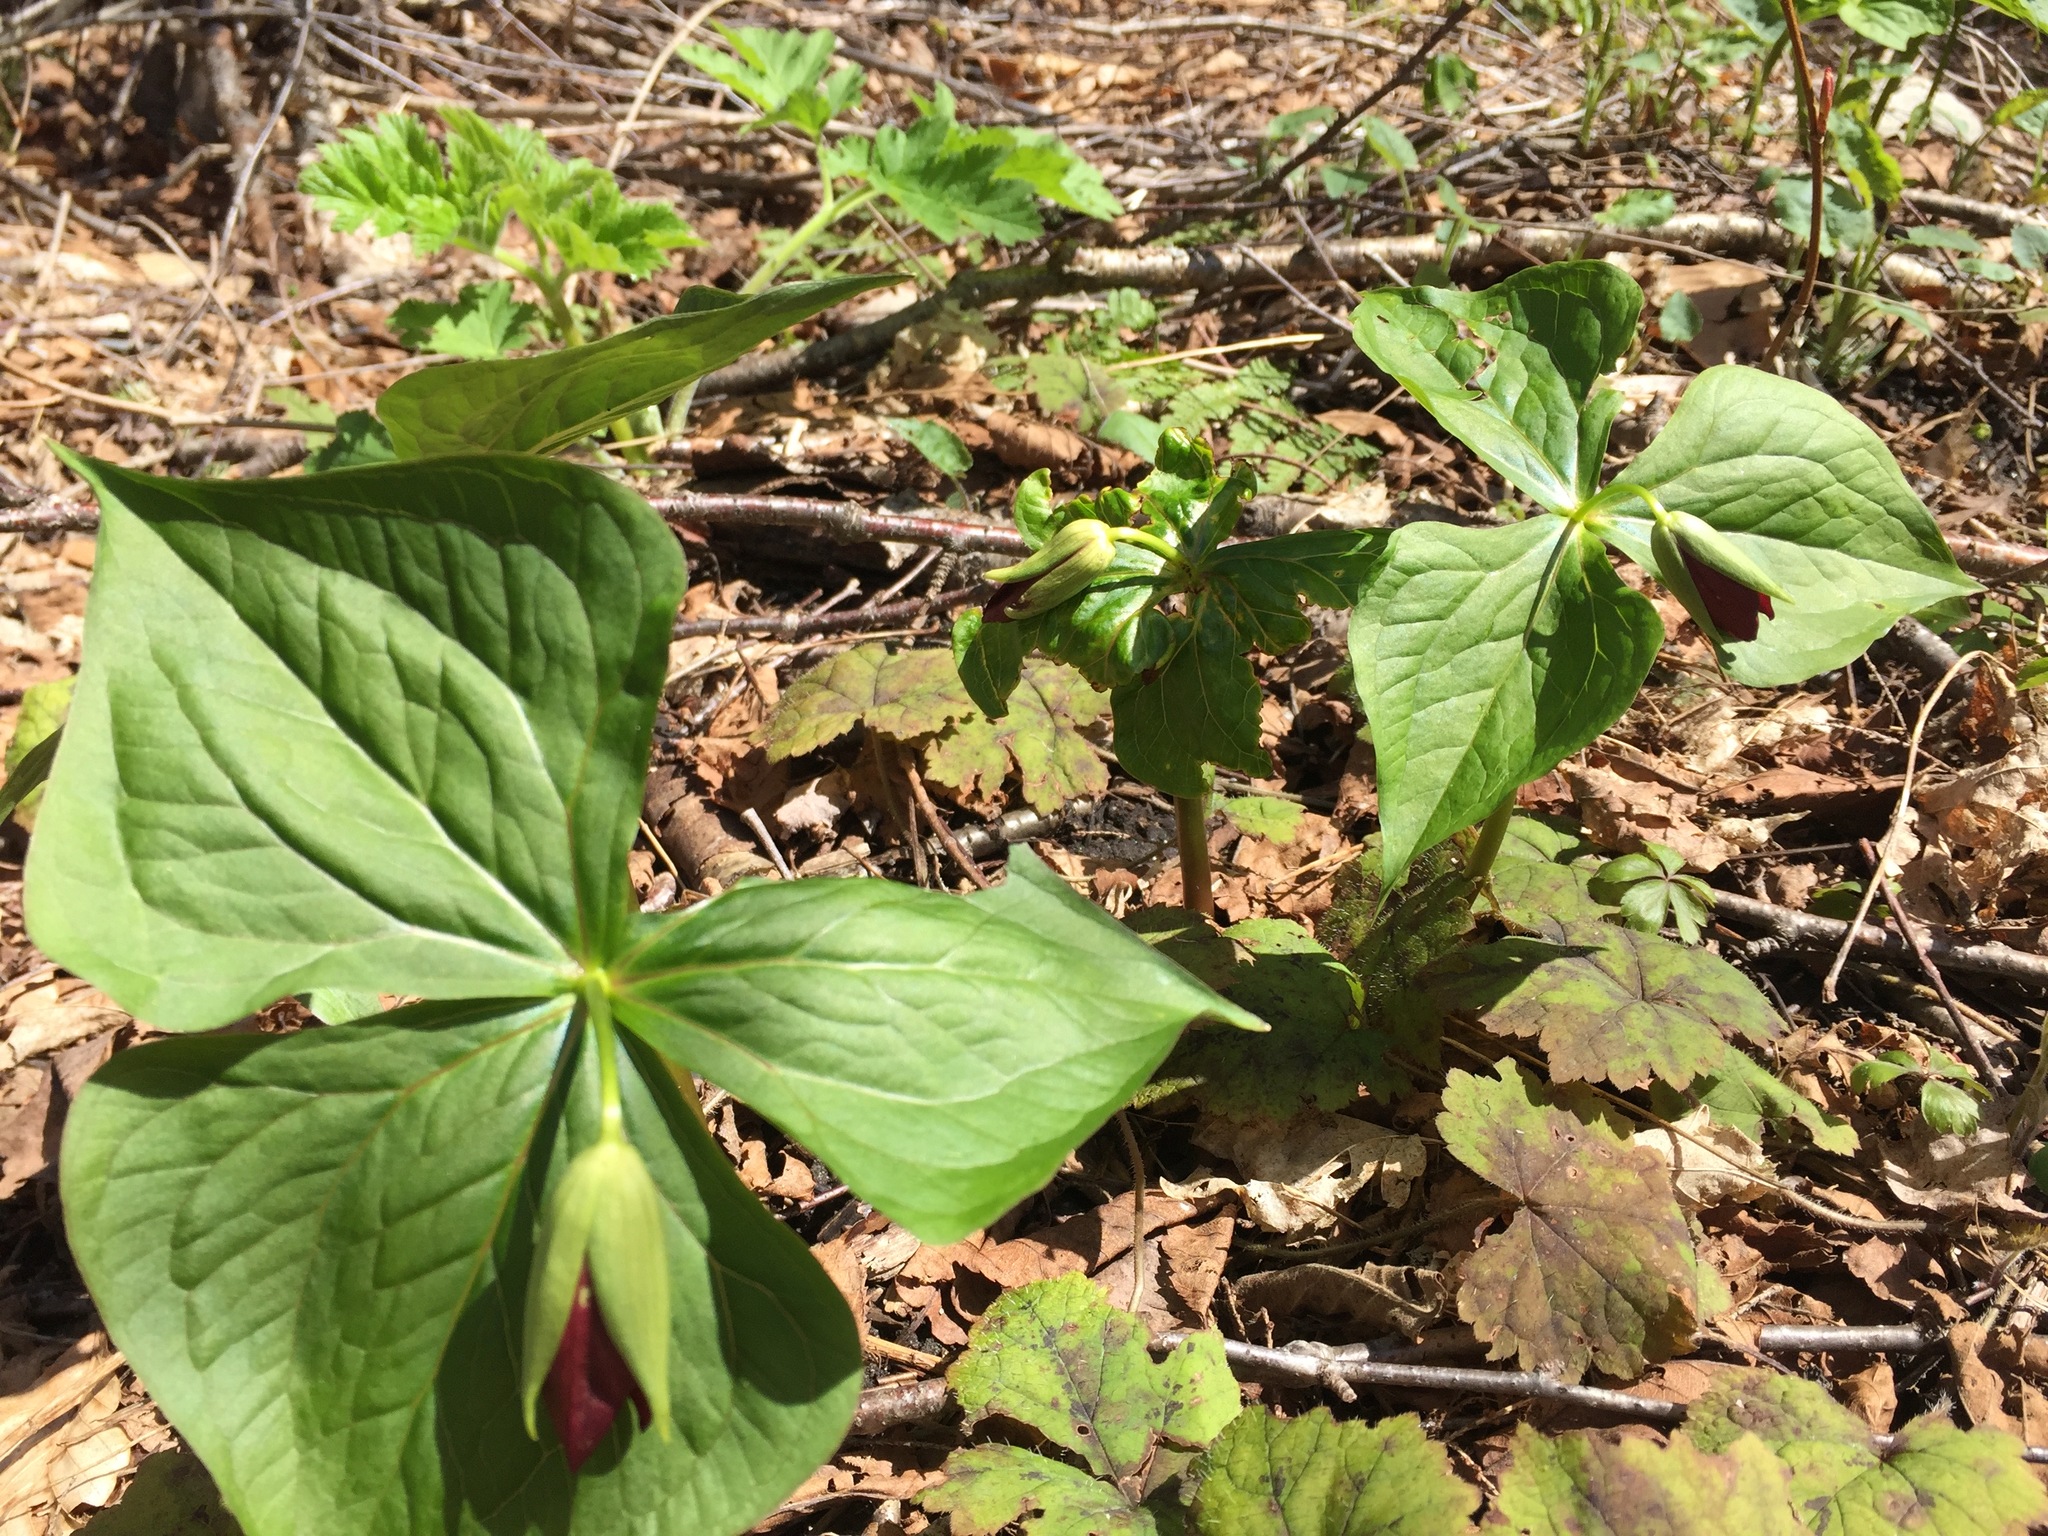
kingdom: Plantae
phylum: Tracheophyta
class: Liliopsida
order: Liliales
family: Melanthiaceae
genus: Trillium
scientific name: Trillium erectum
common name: Purple trillium
